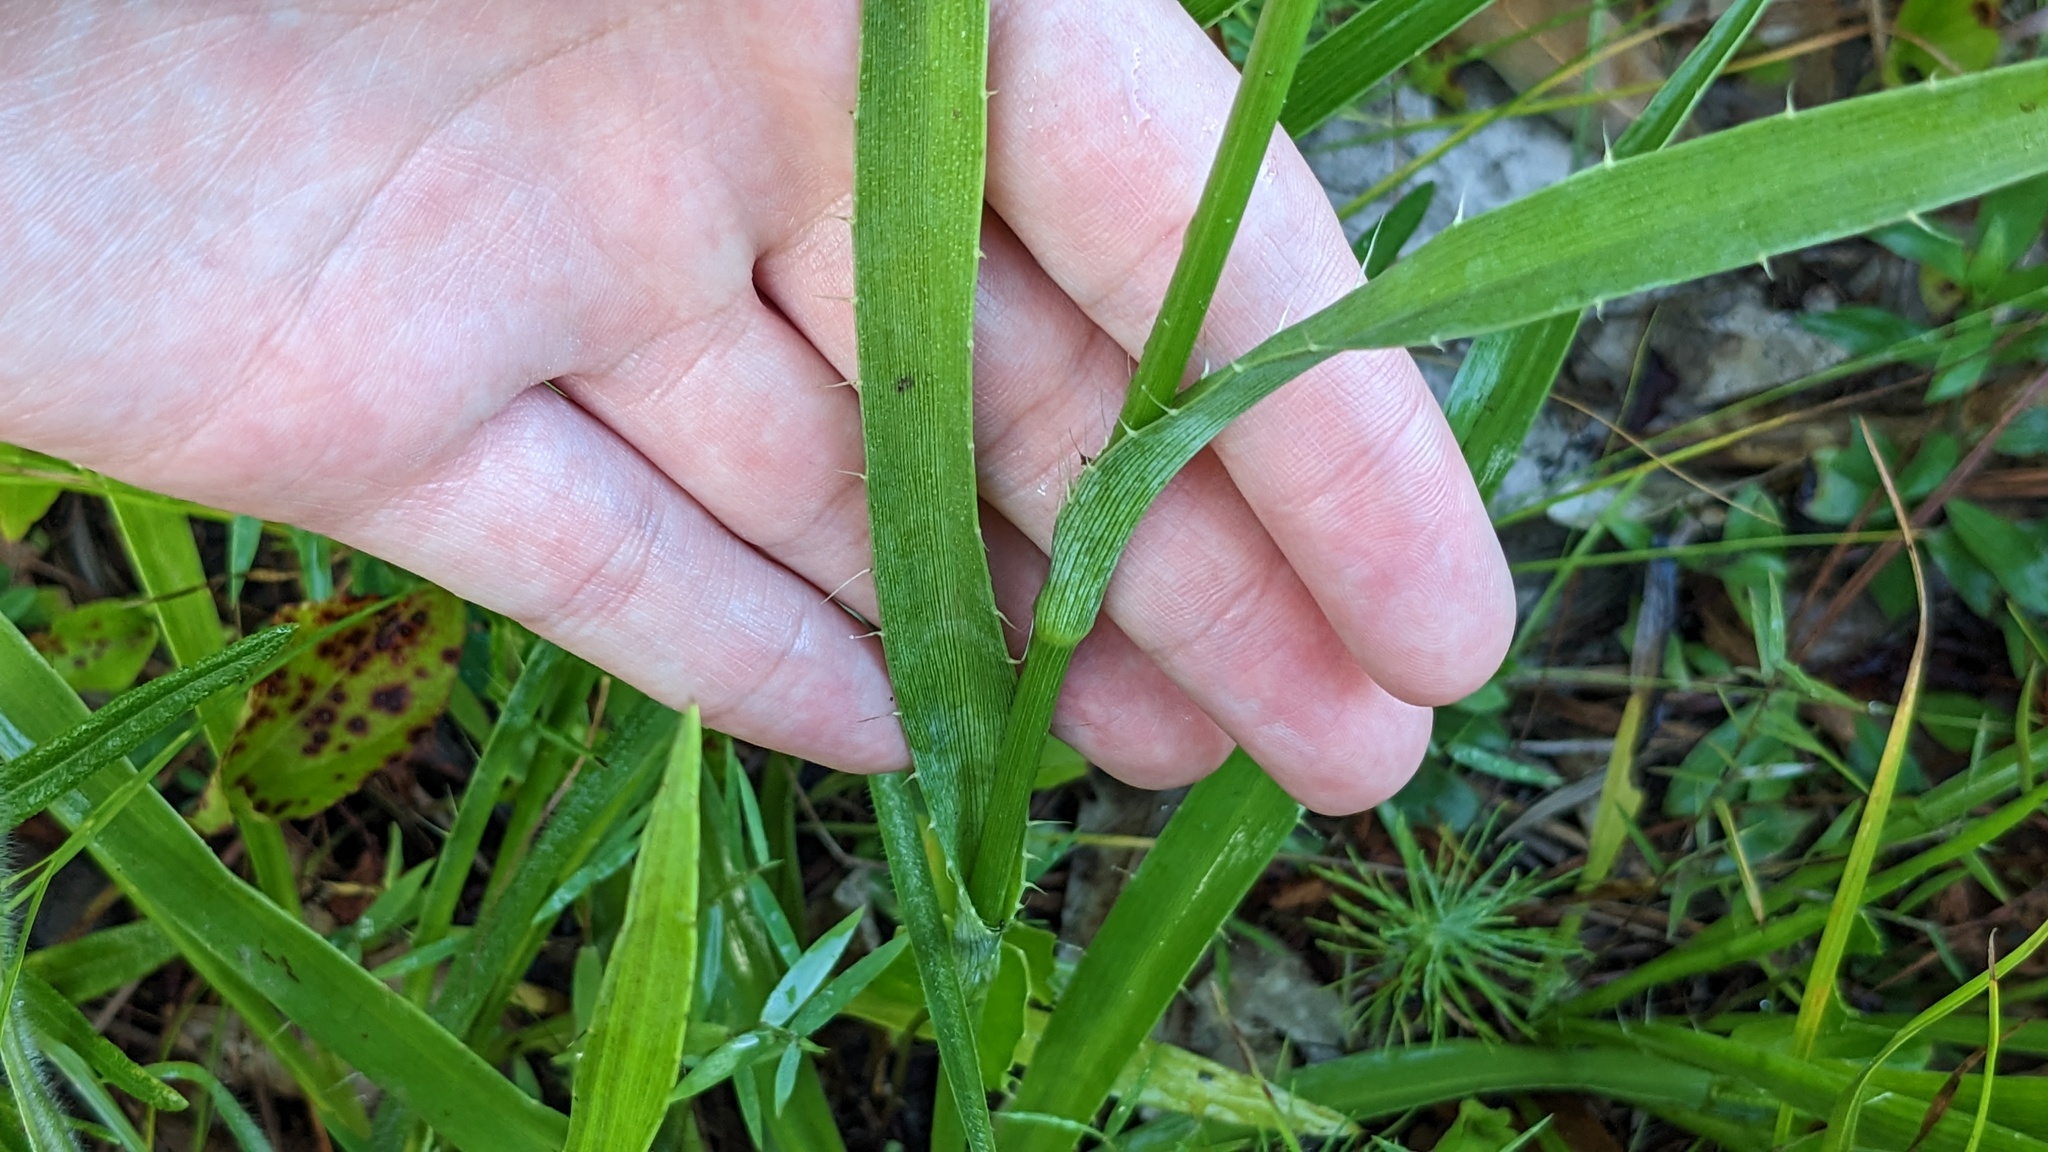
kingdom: Plantae
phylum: Tracheophyta
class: Magnoliopsida
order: Apiales
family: Apiaceae
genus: Eryngium
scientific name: Eryngium yuccifolium
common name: Button eryngo
